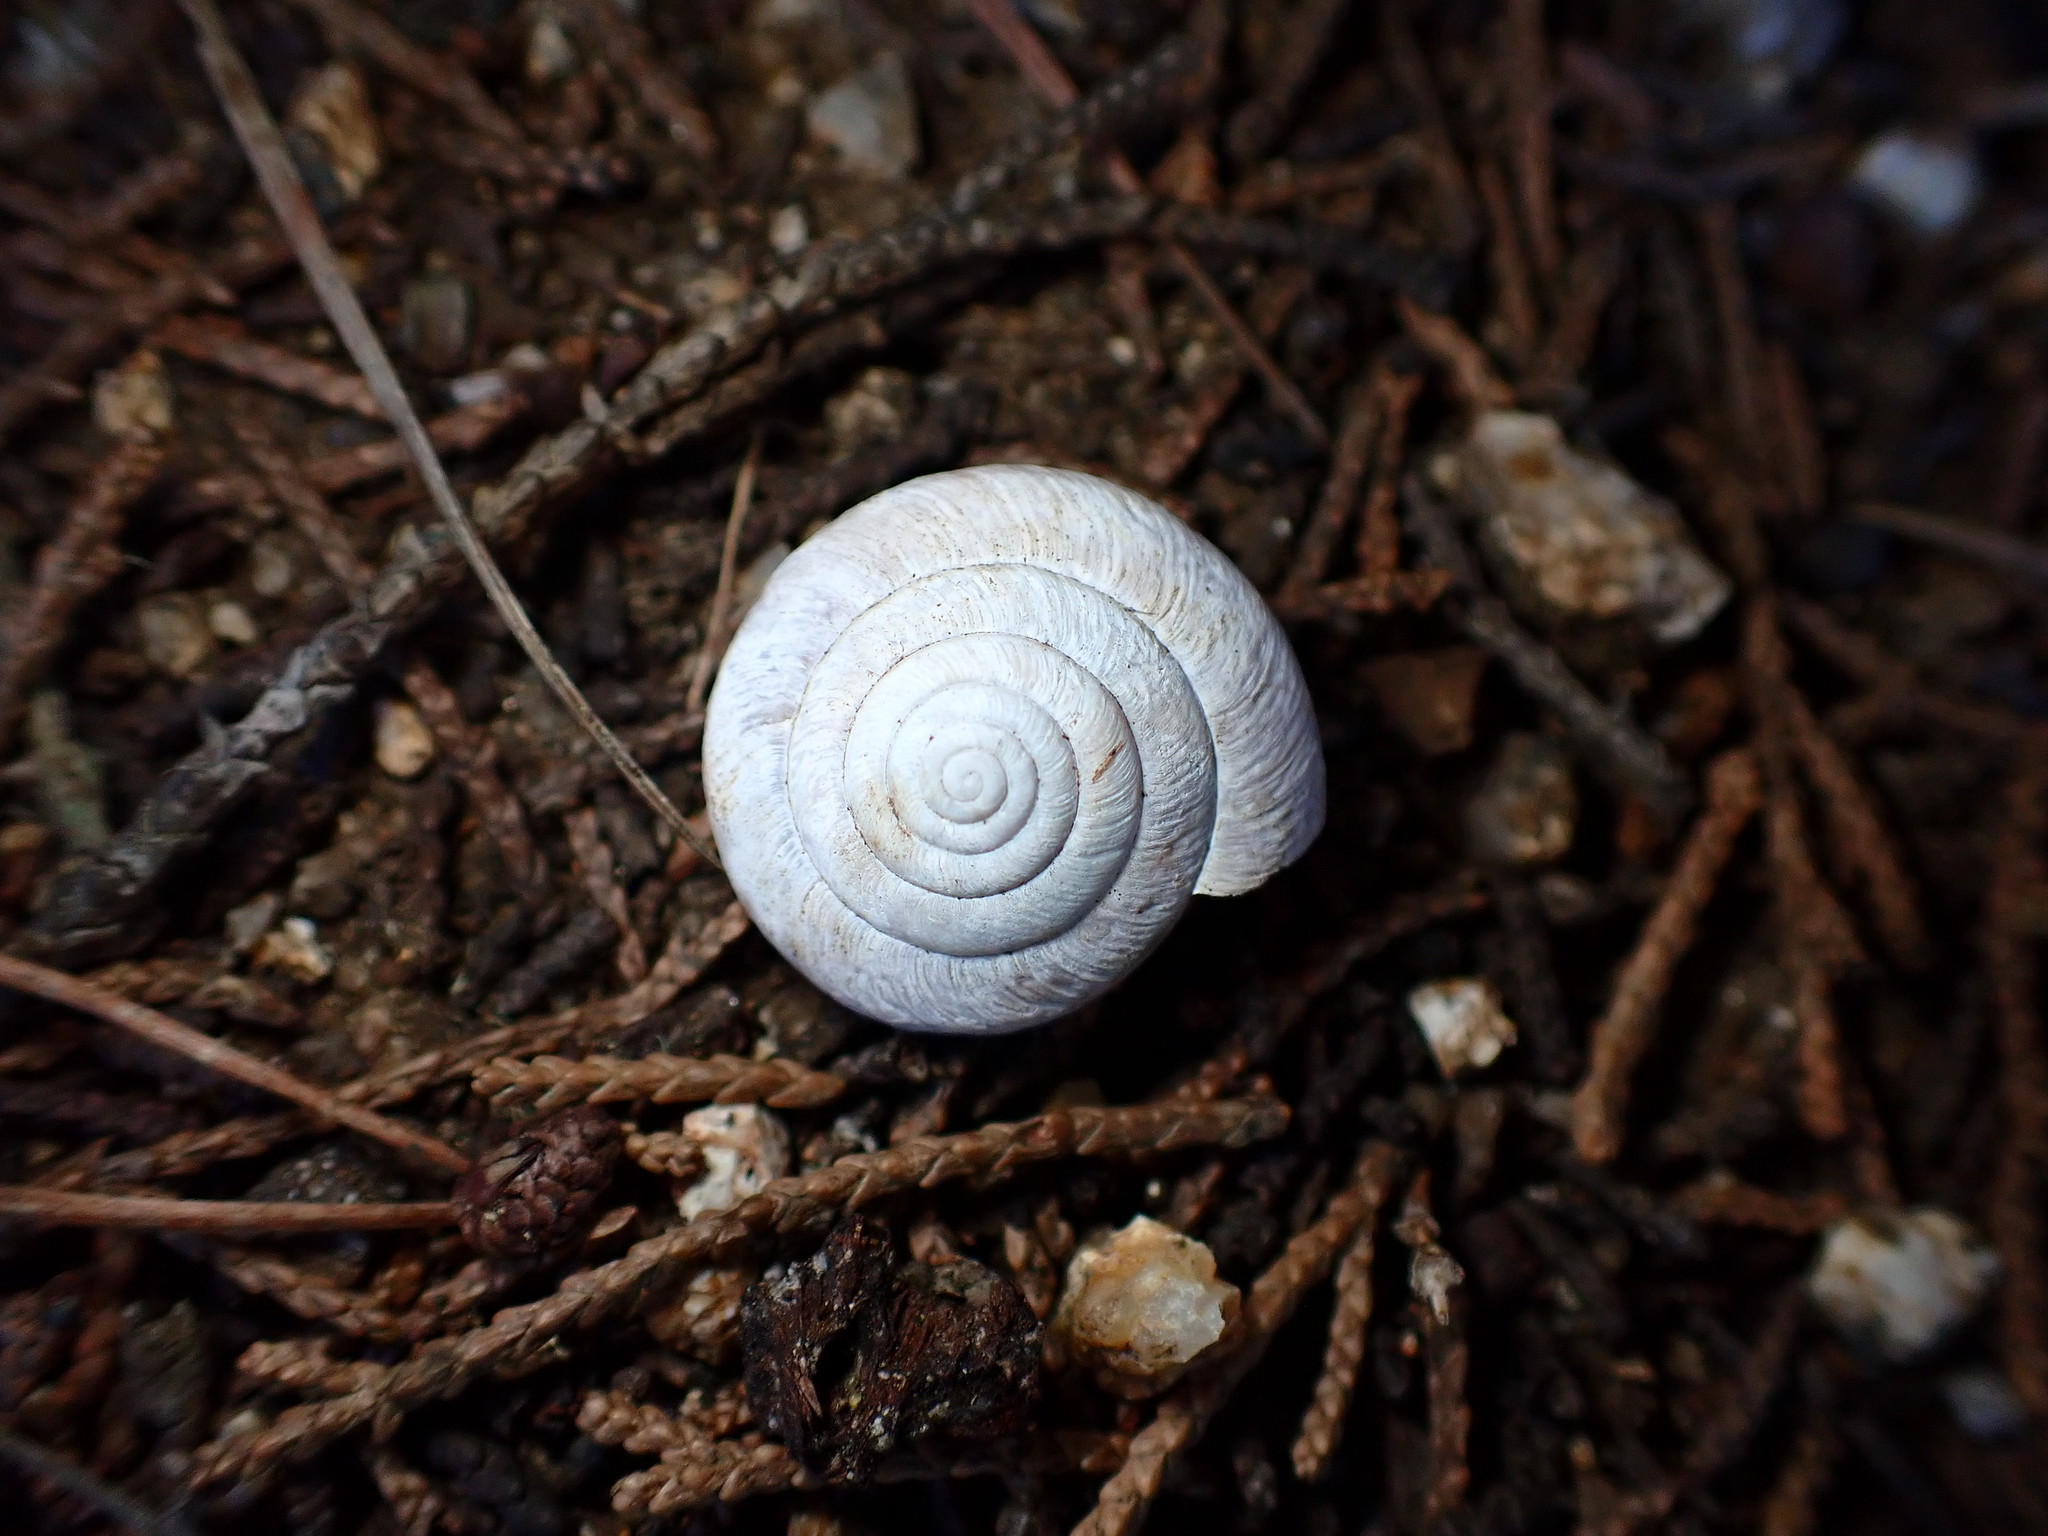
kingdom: Animalia
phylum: Mollusca
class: Gastropoda
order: Stylommatophora
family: Xanthonychidae
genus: Helminthoglypta
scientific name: Helminthoglypta arrosa
